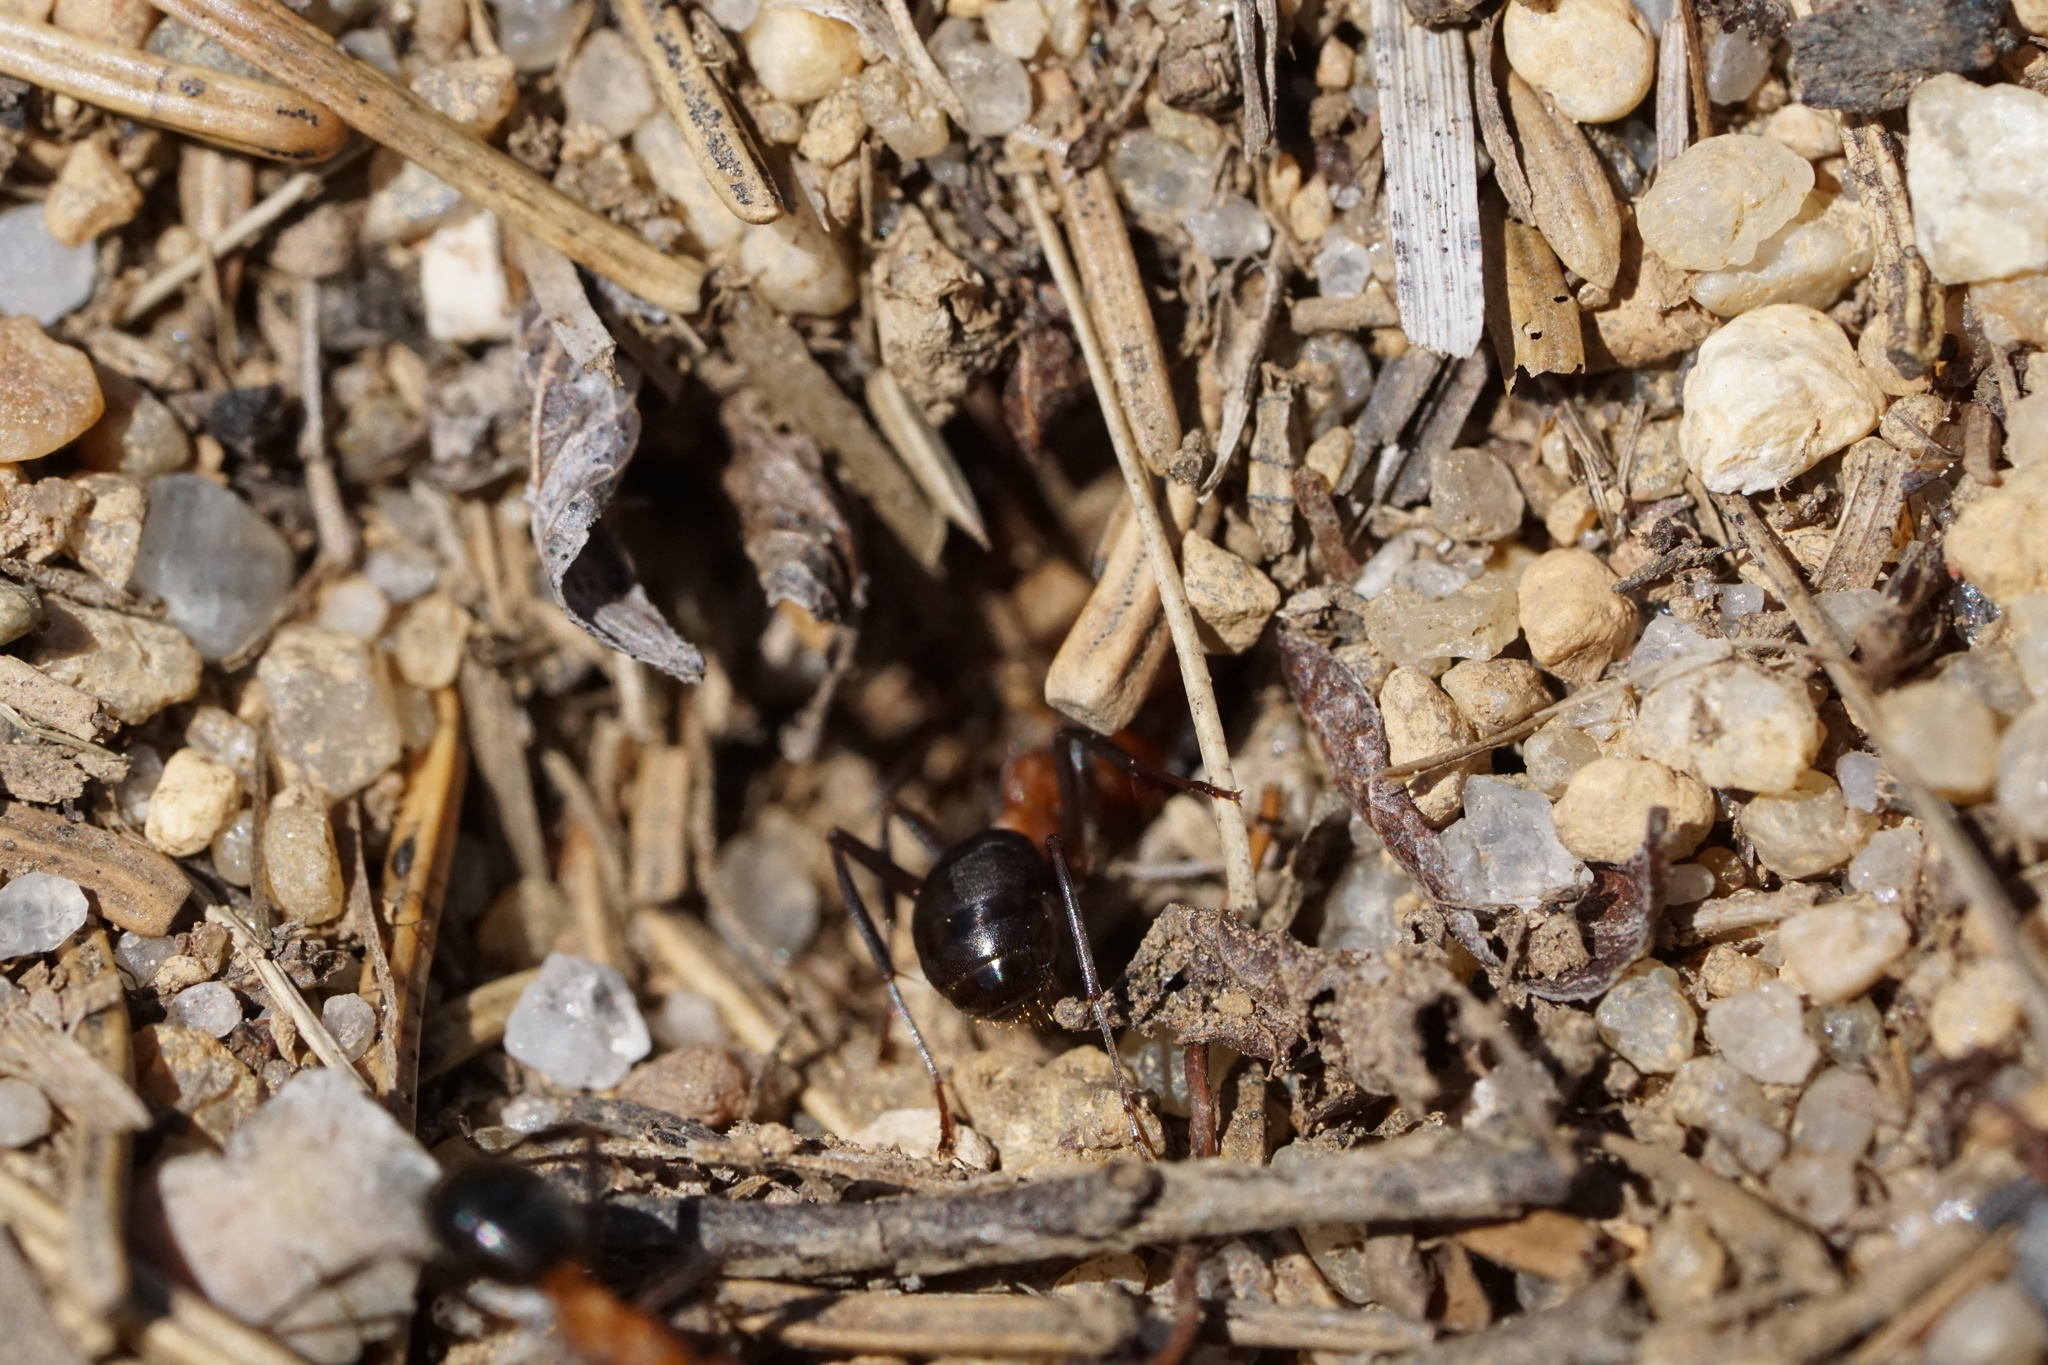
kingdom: Animalia
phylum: Arthropoda
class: Insecta
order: Hymenoptera
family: Formicidae
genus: Formica
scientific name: Formica exsectoides
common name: Allegheny mound ant
